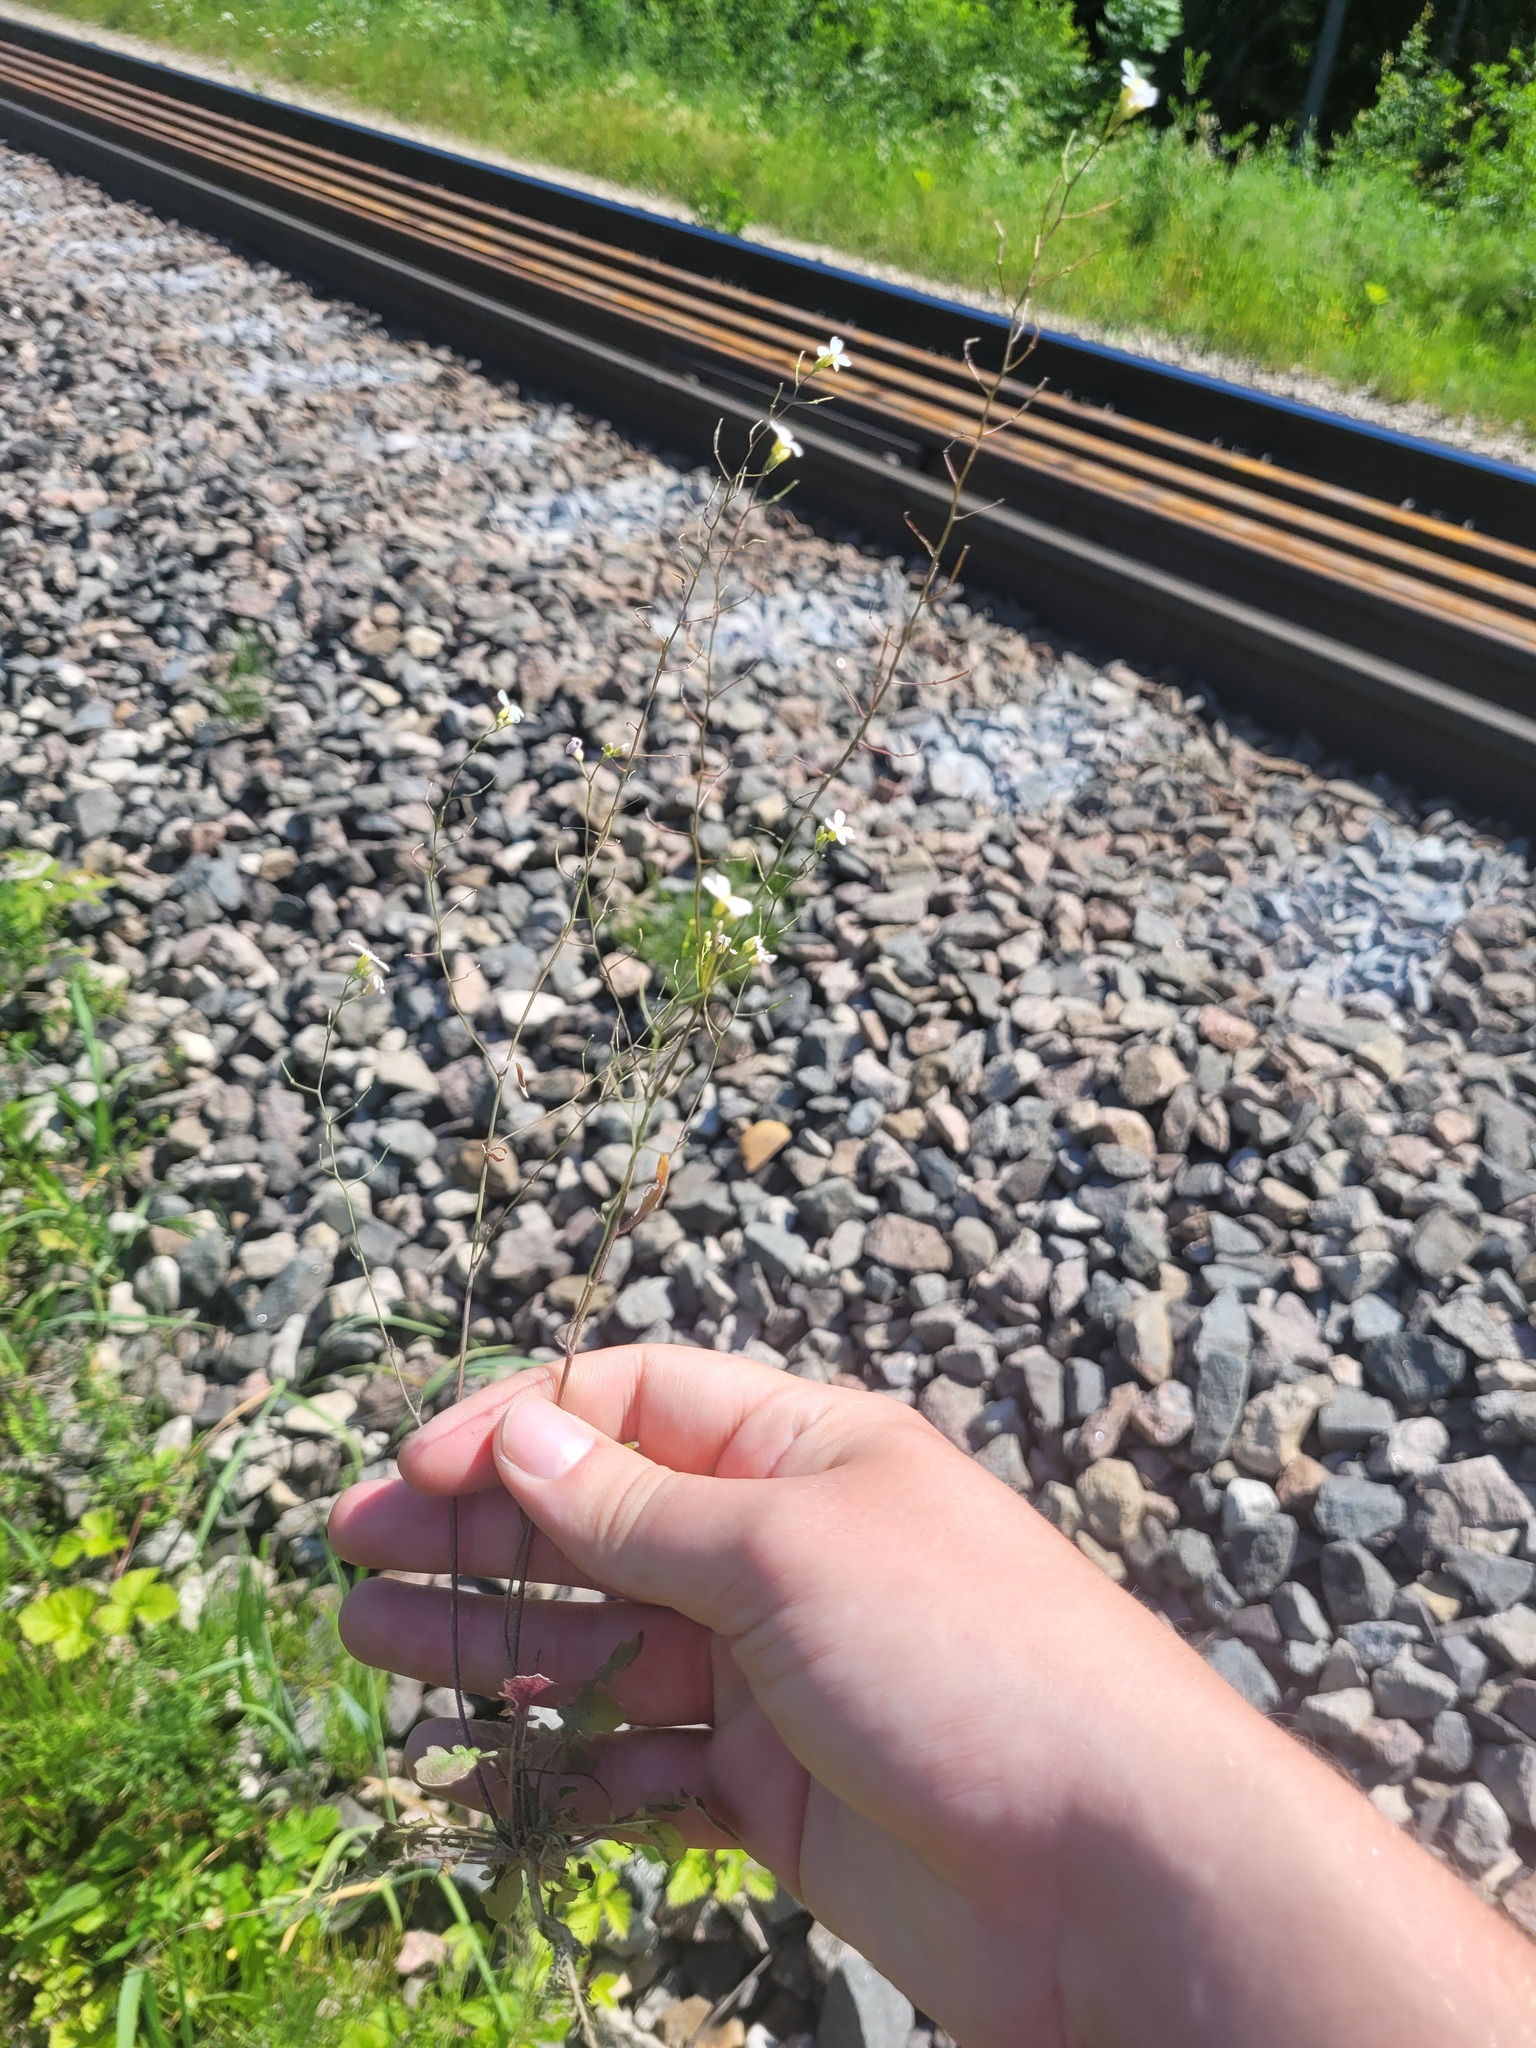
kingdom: Plantae
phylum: Tracheophyta
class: Magnoliopsida
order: Brassicales
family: Brassicaceae
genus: Arabidopsis
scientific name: Arabidopsis arenosa
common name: Sand rock-cress
